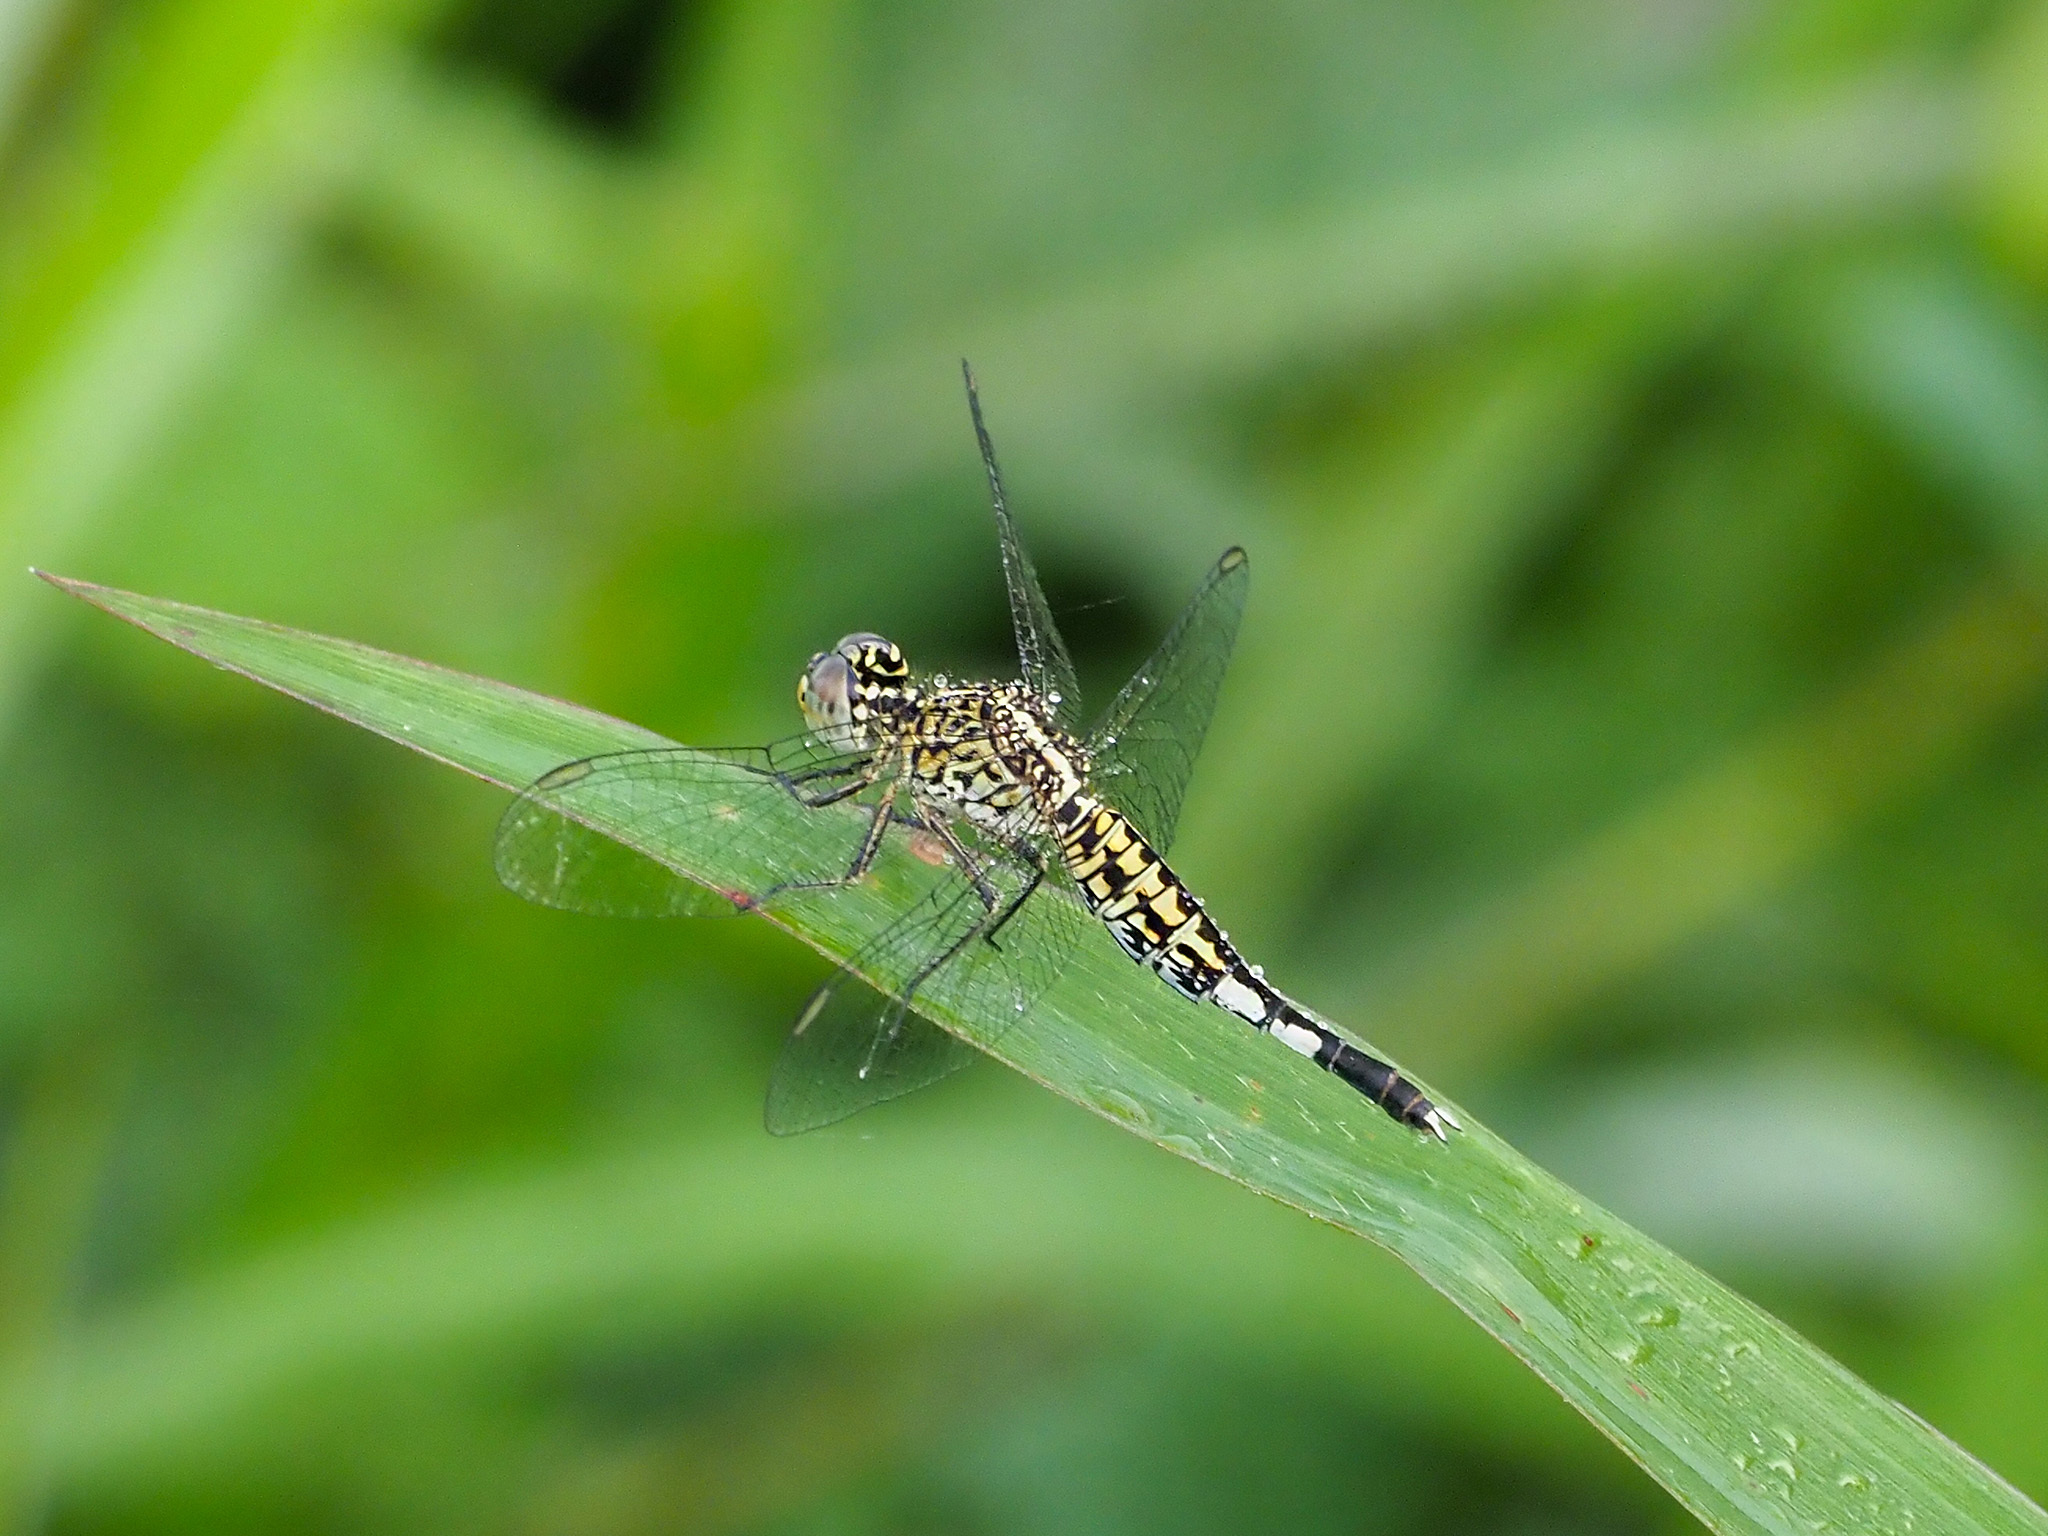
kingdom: Animalia
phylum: Arthropoda
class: Insecta
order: Odonata
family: Libellulidae
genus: Acisoma
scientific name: Acisoma panorpoides
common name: Asian pintail
